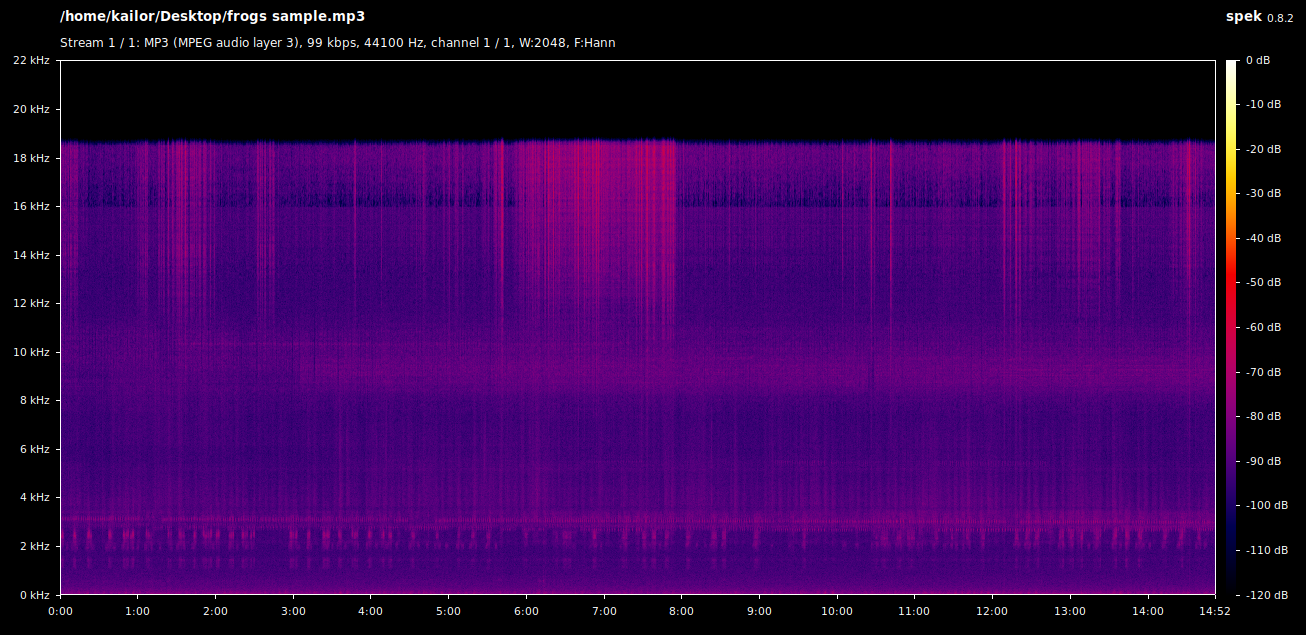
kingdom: Animalia
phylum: Chordata
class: Amphibia
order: Anura
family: Hylidae
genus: Hyla
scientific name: Hyla arborea
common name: Common tree frog
